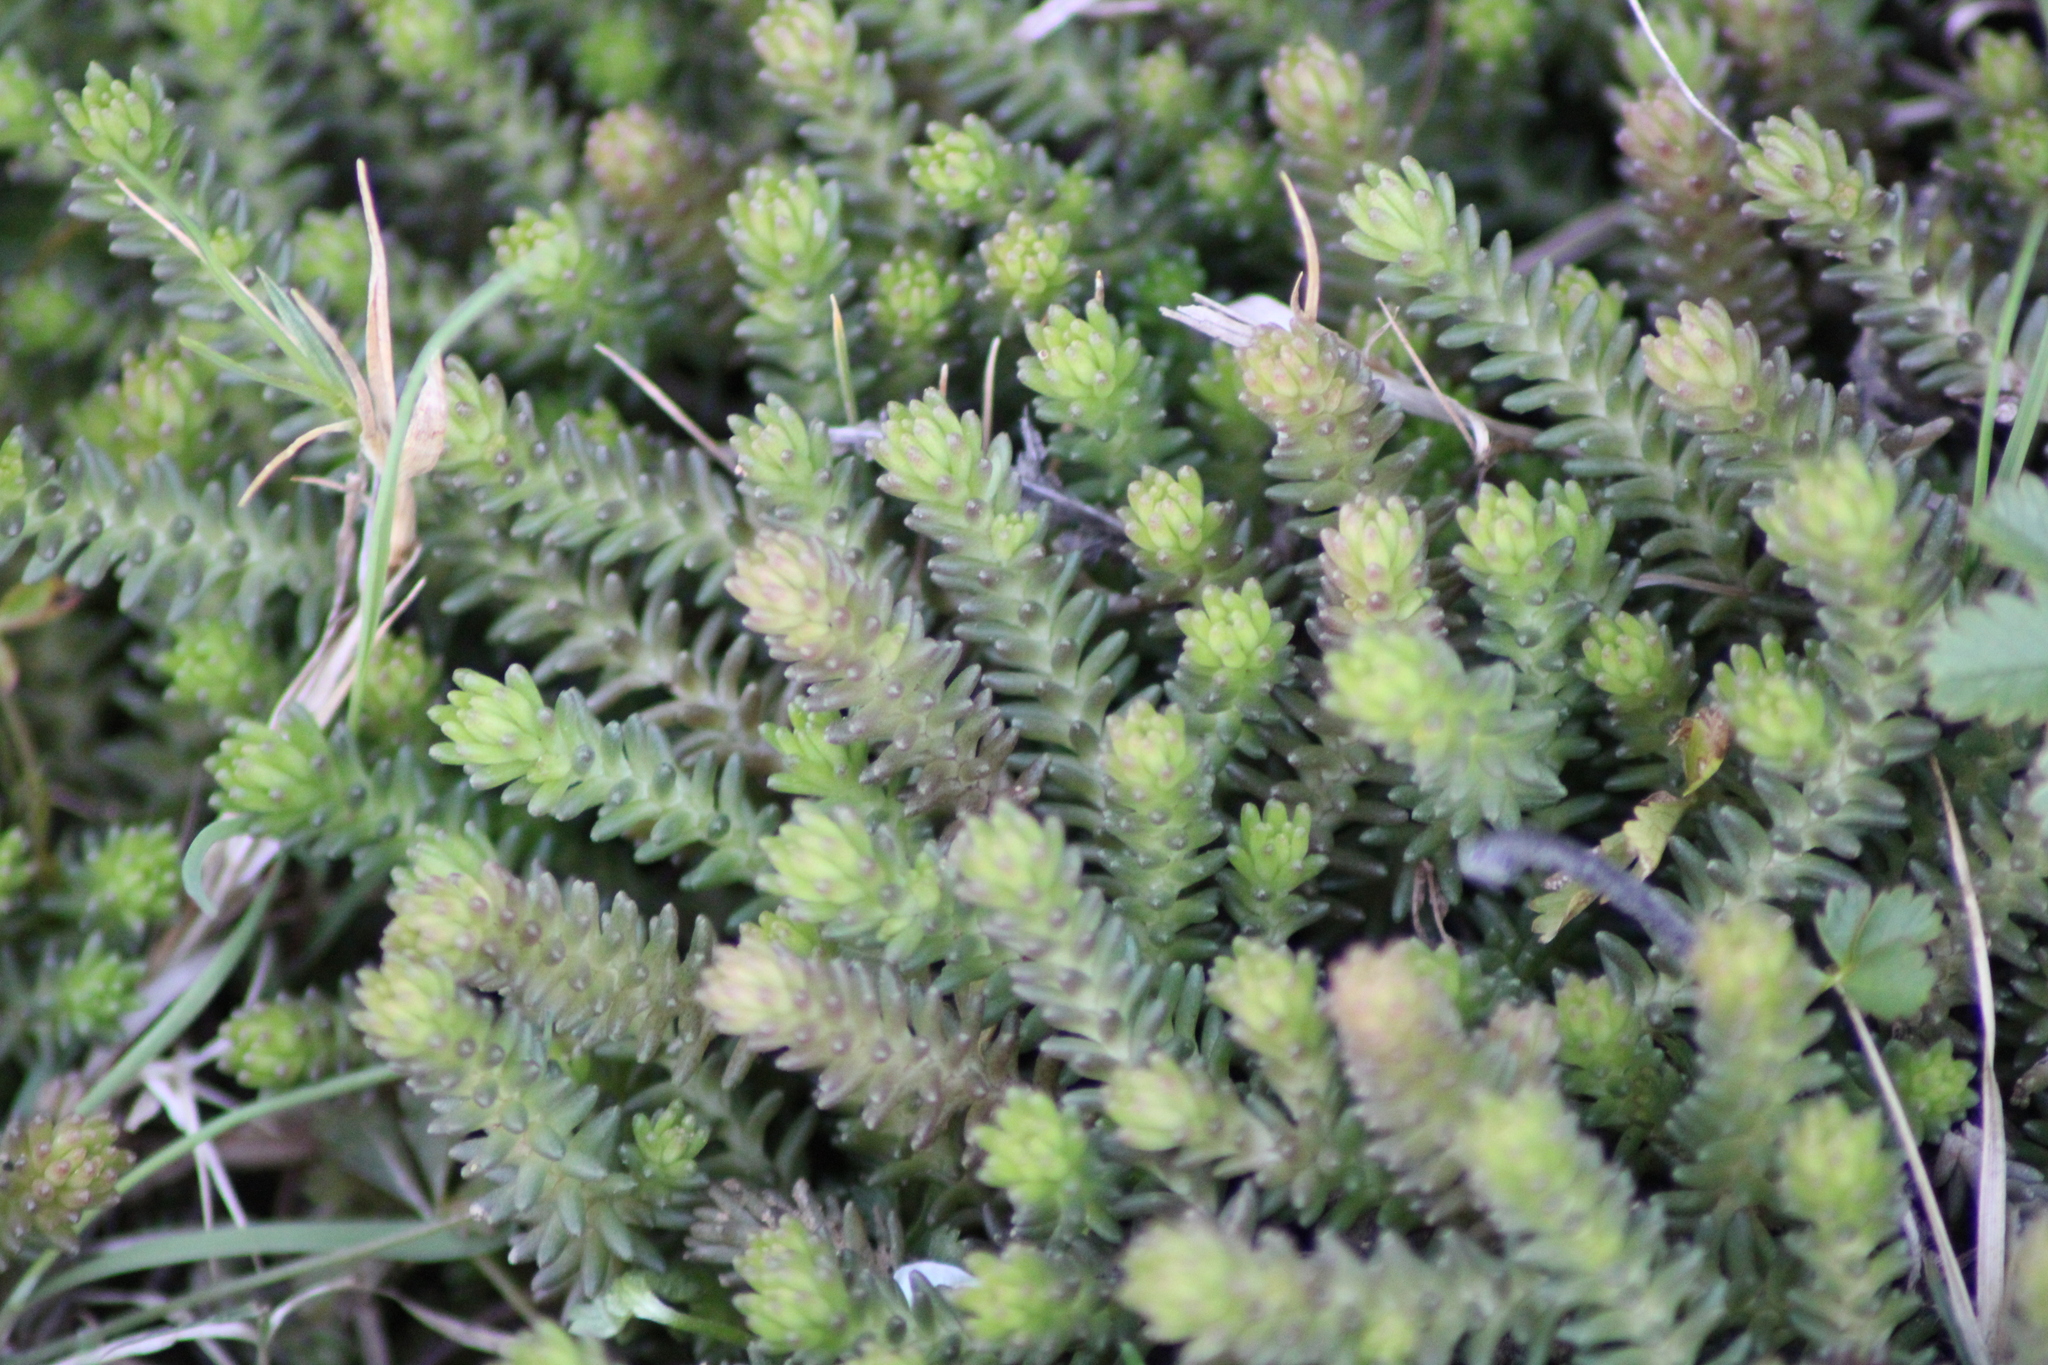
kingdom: Plantae
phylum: Tracheophyta
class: Magnoliopsida
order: Saxifragales
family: Crassulaceae
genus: Sedum
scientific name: Sedum sexangulare
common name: Tasteless stonecrop
